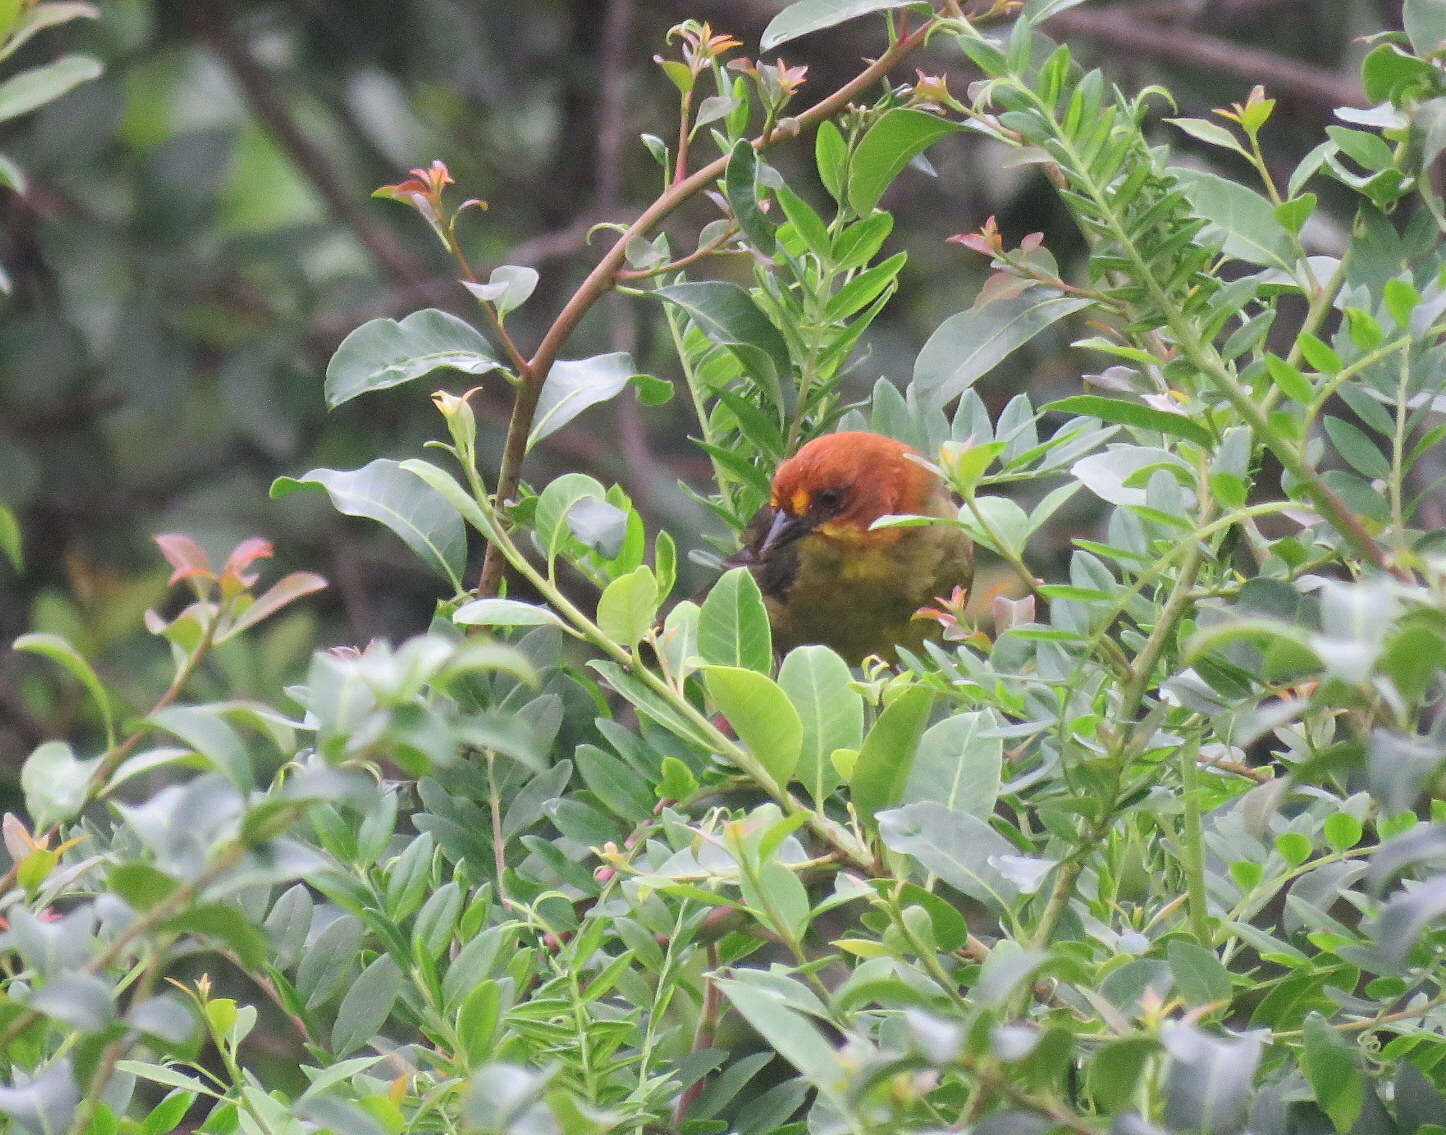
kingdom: Animalia
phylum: Chordata
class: Aves
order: Passeriformes
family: Passerellidae
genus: Atlapetes
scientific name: Atlapetes fulviceps
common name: Fulvous-headed brushfinch
